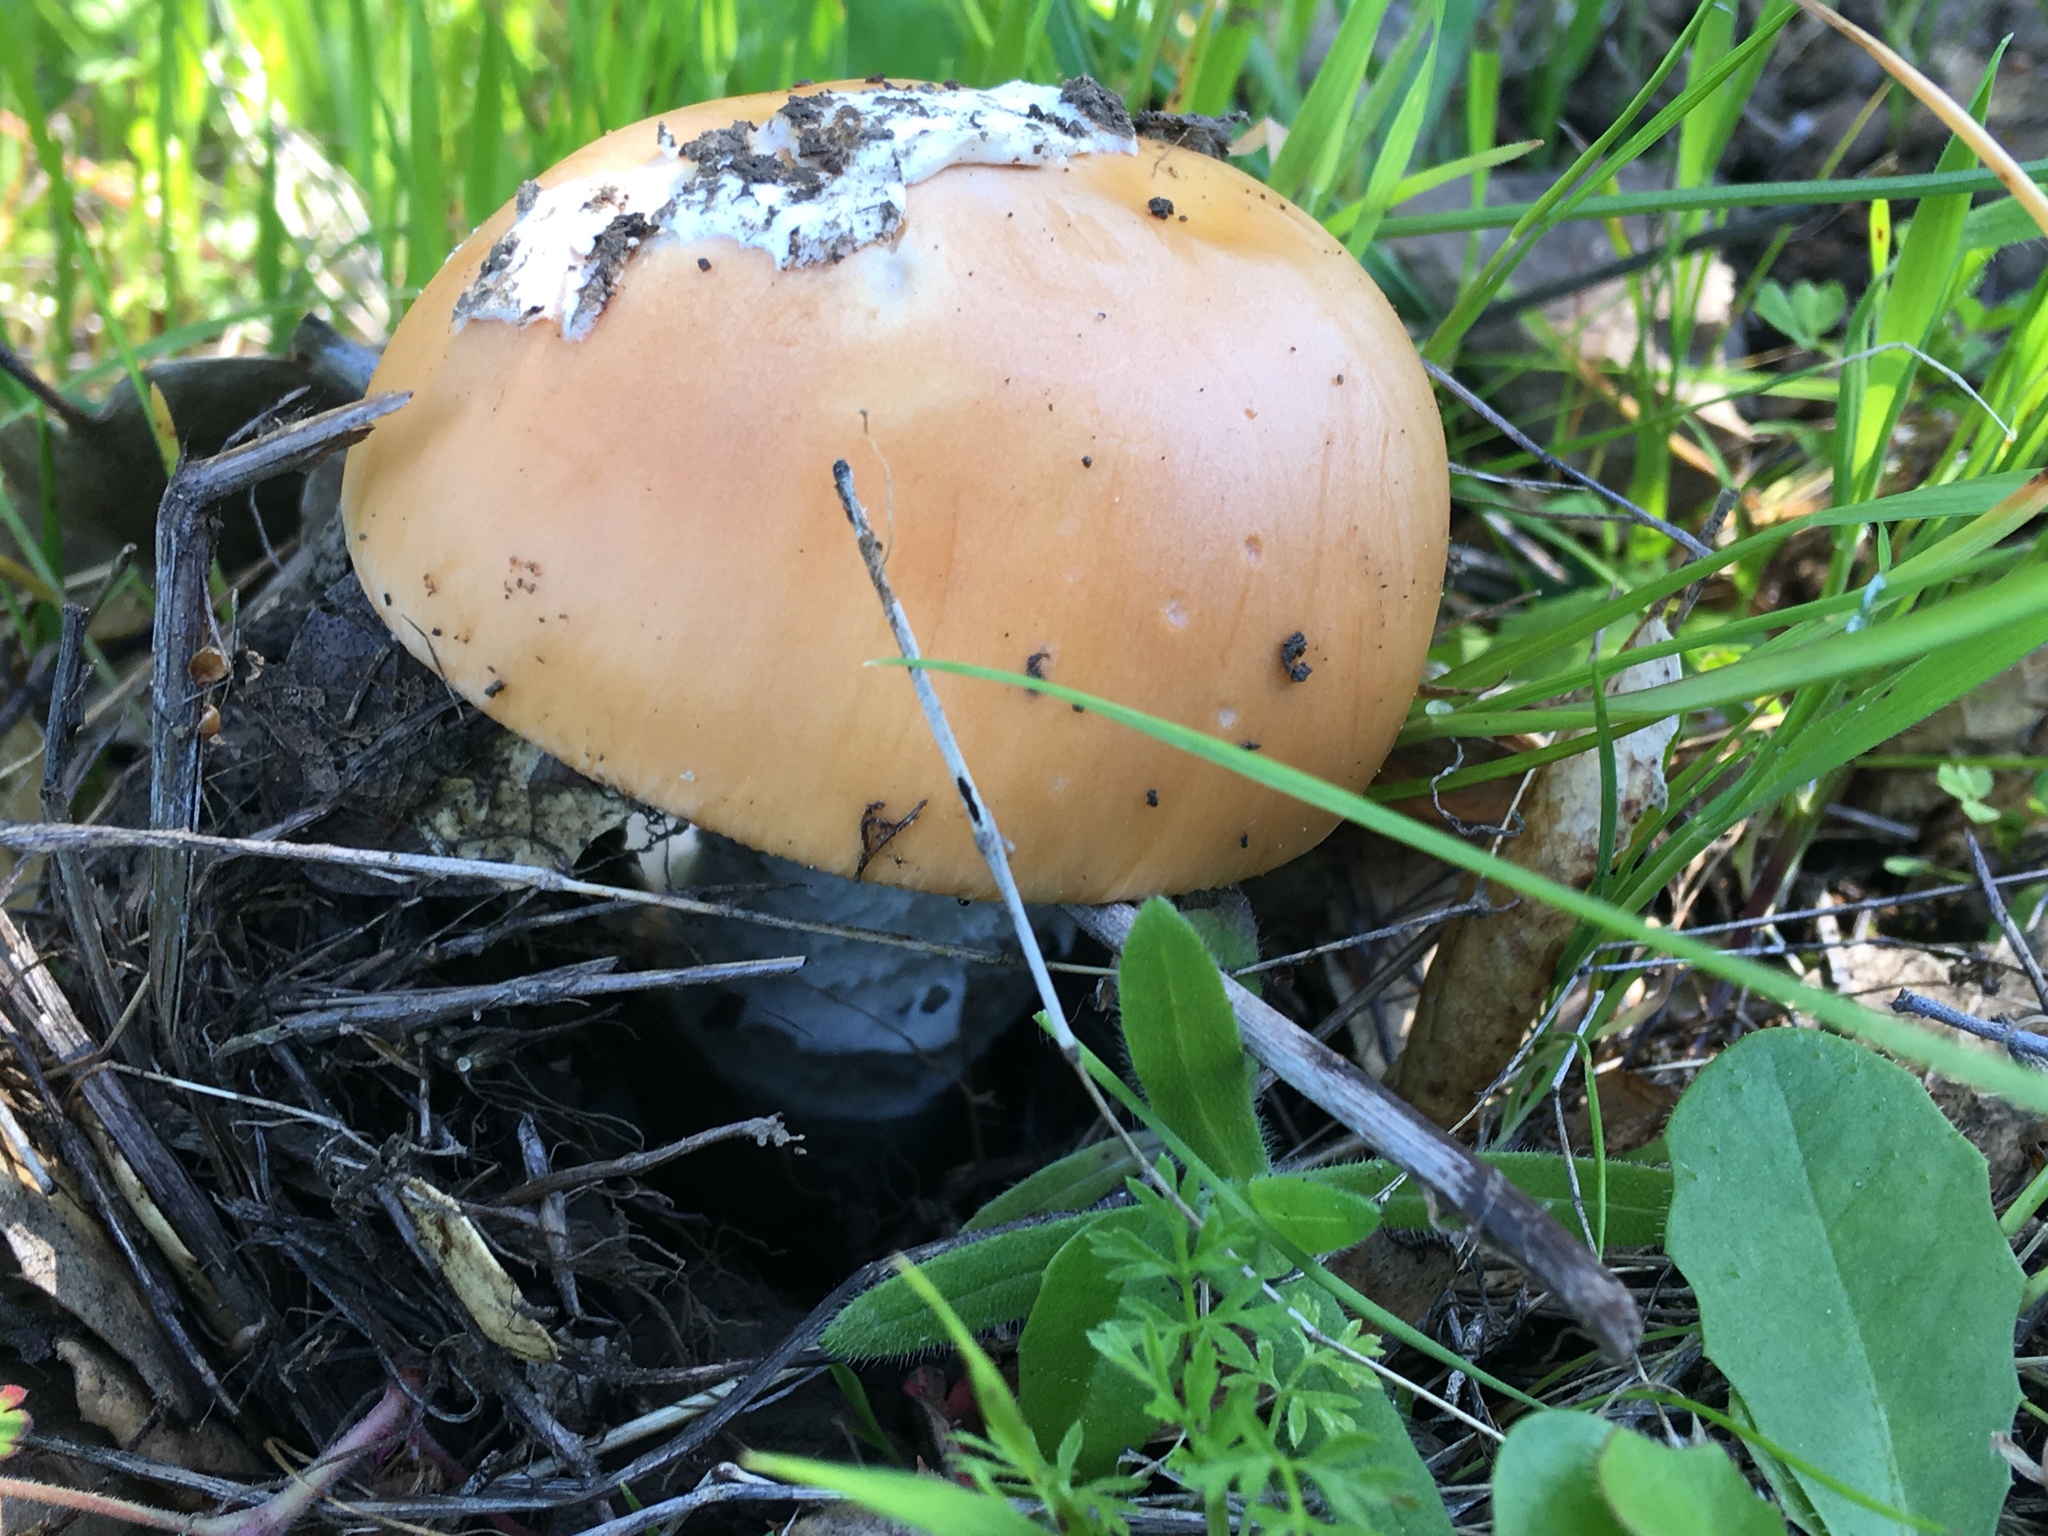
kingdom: Fungi
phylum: Basidiomycota
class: Agaricomycetes
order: Agaricales
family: Amanitaceae
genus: Amanita
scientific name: Amanita velosa
